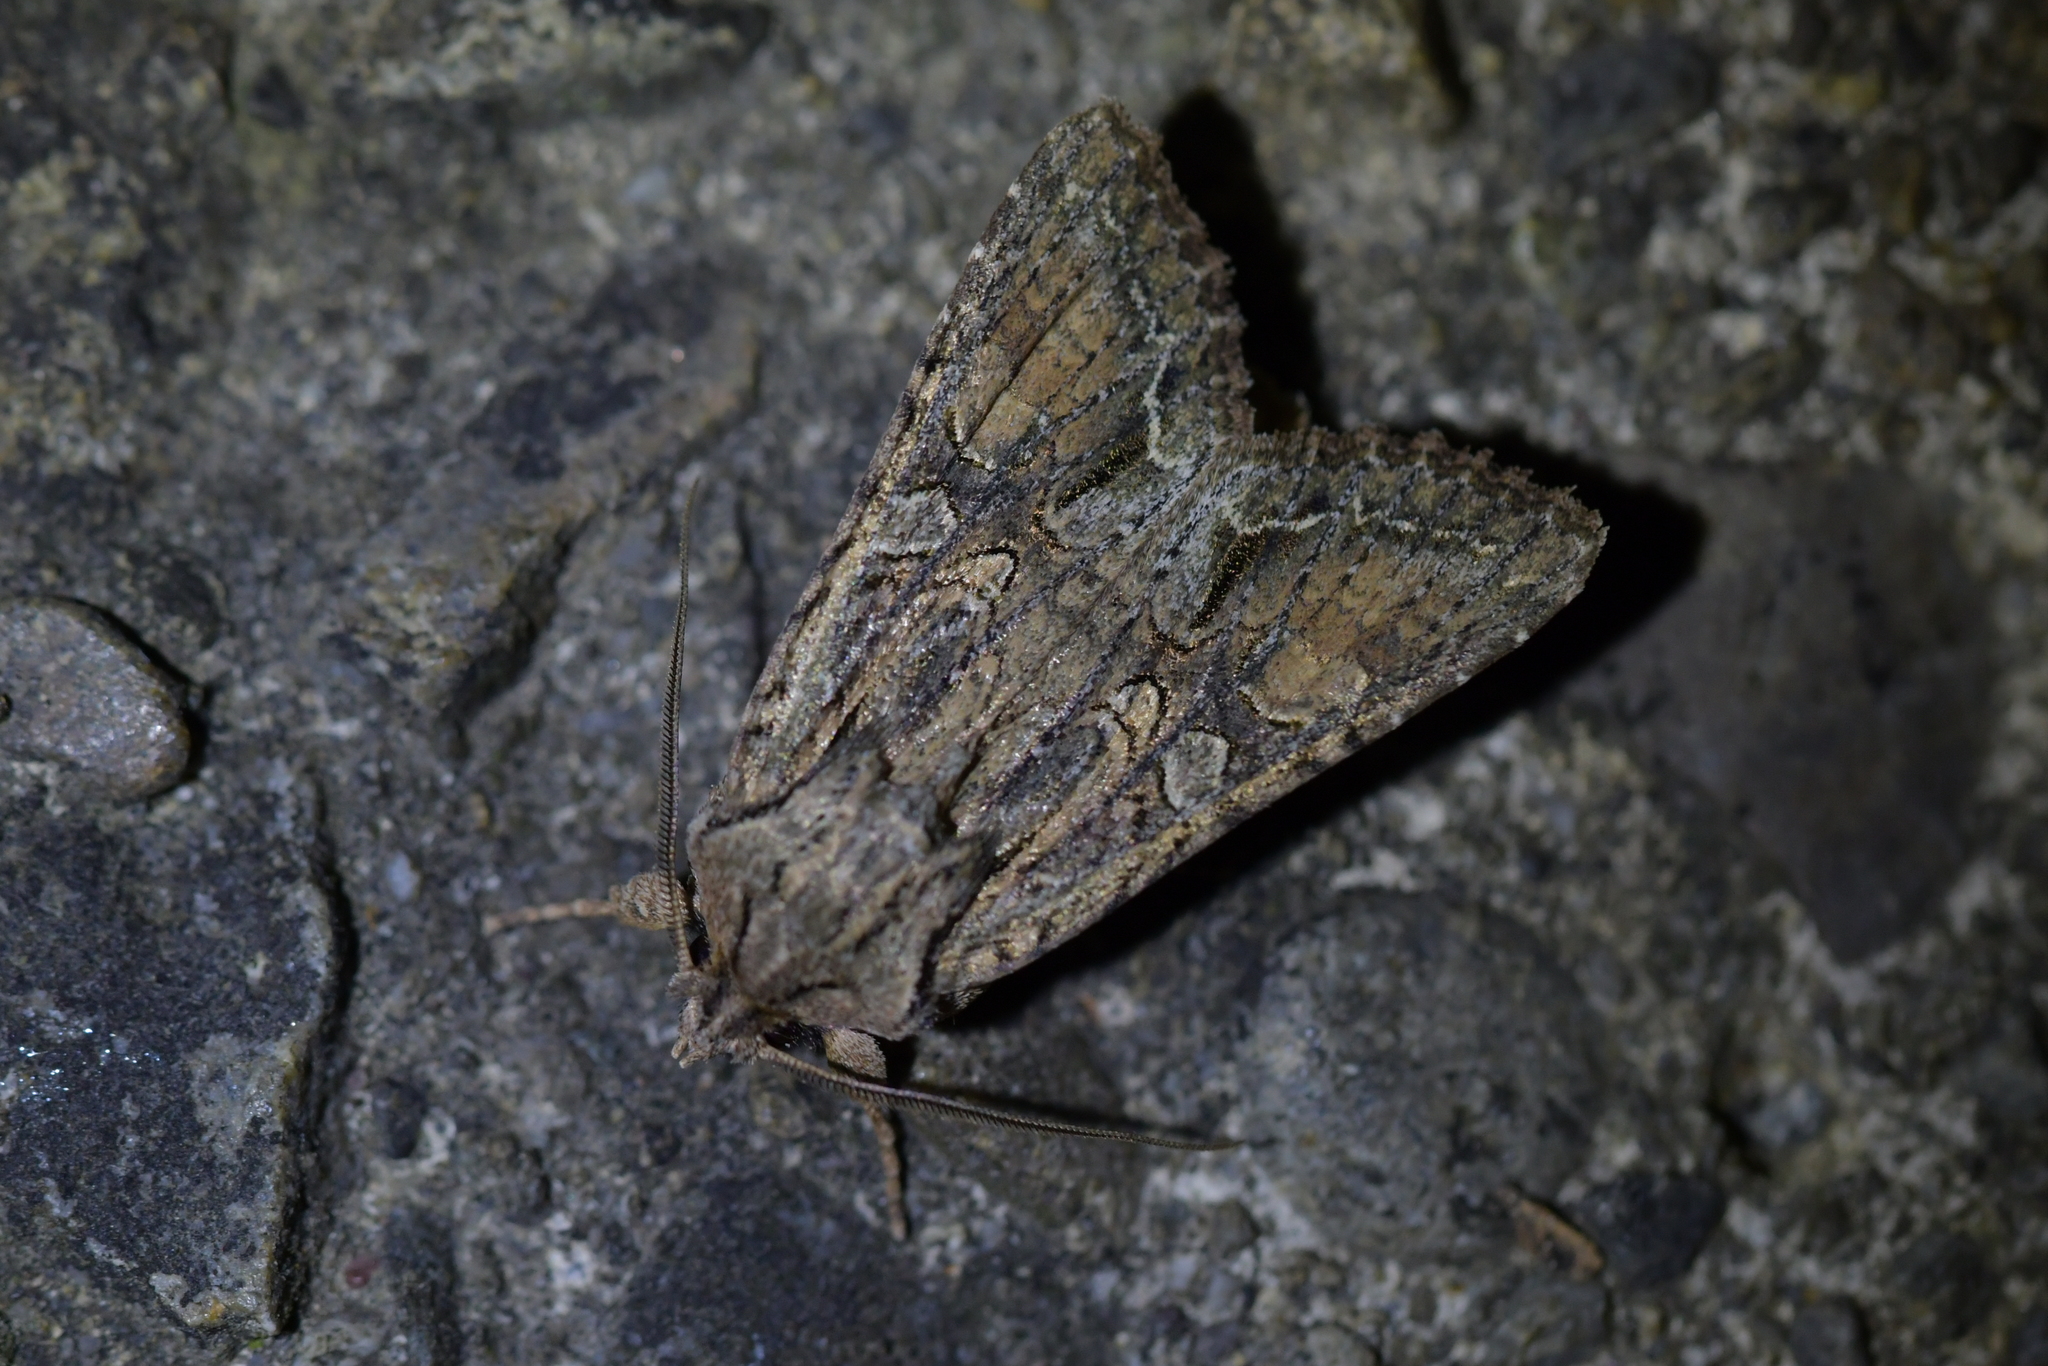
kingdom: Animalia
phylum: Arthropoda
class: Insecta
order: Lepidoptera
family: Noctuidae
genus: Ichneutica
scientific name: Ichneutica mutans
